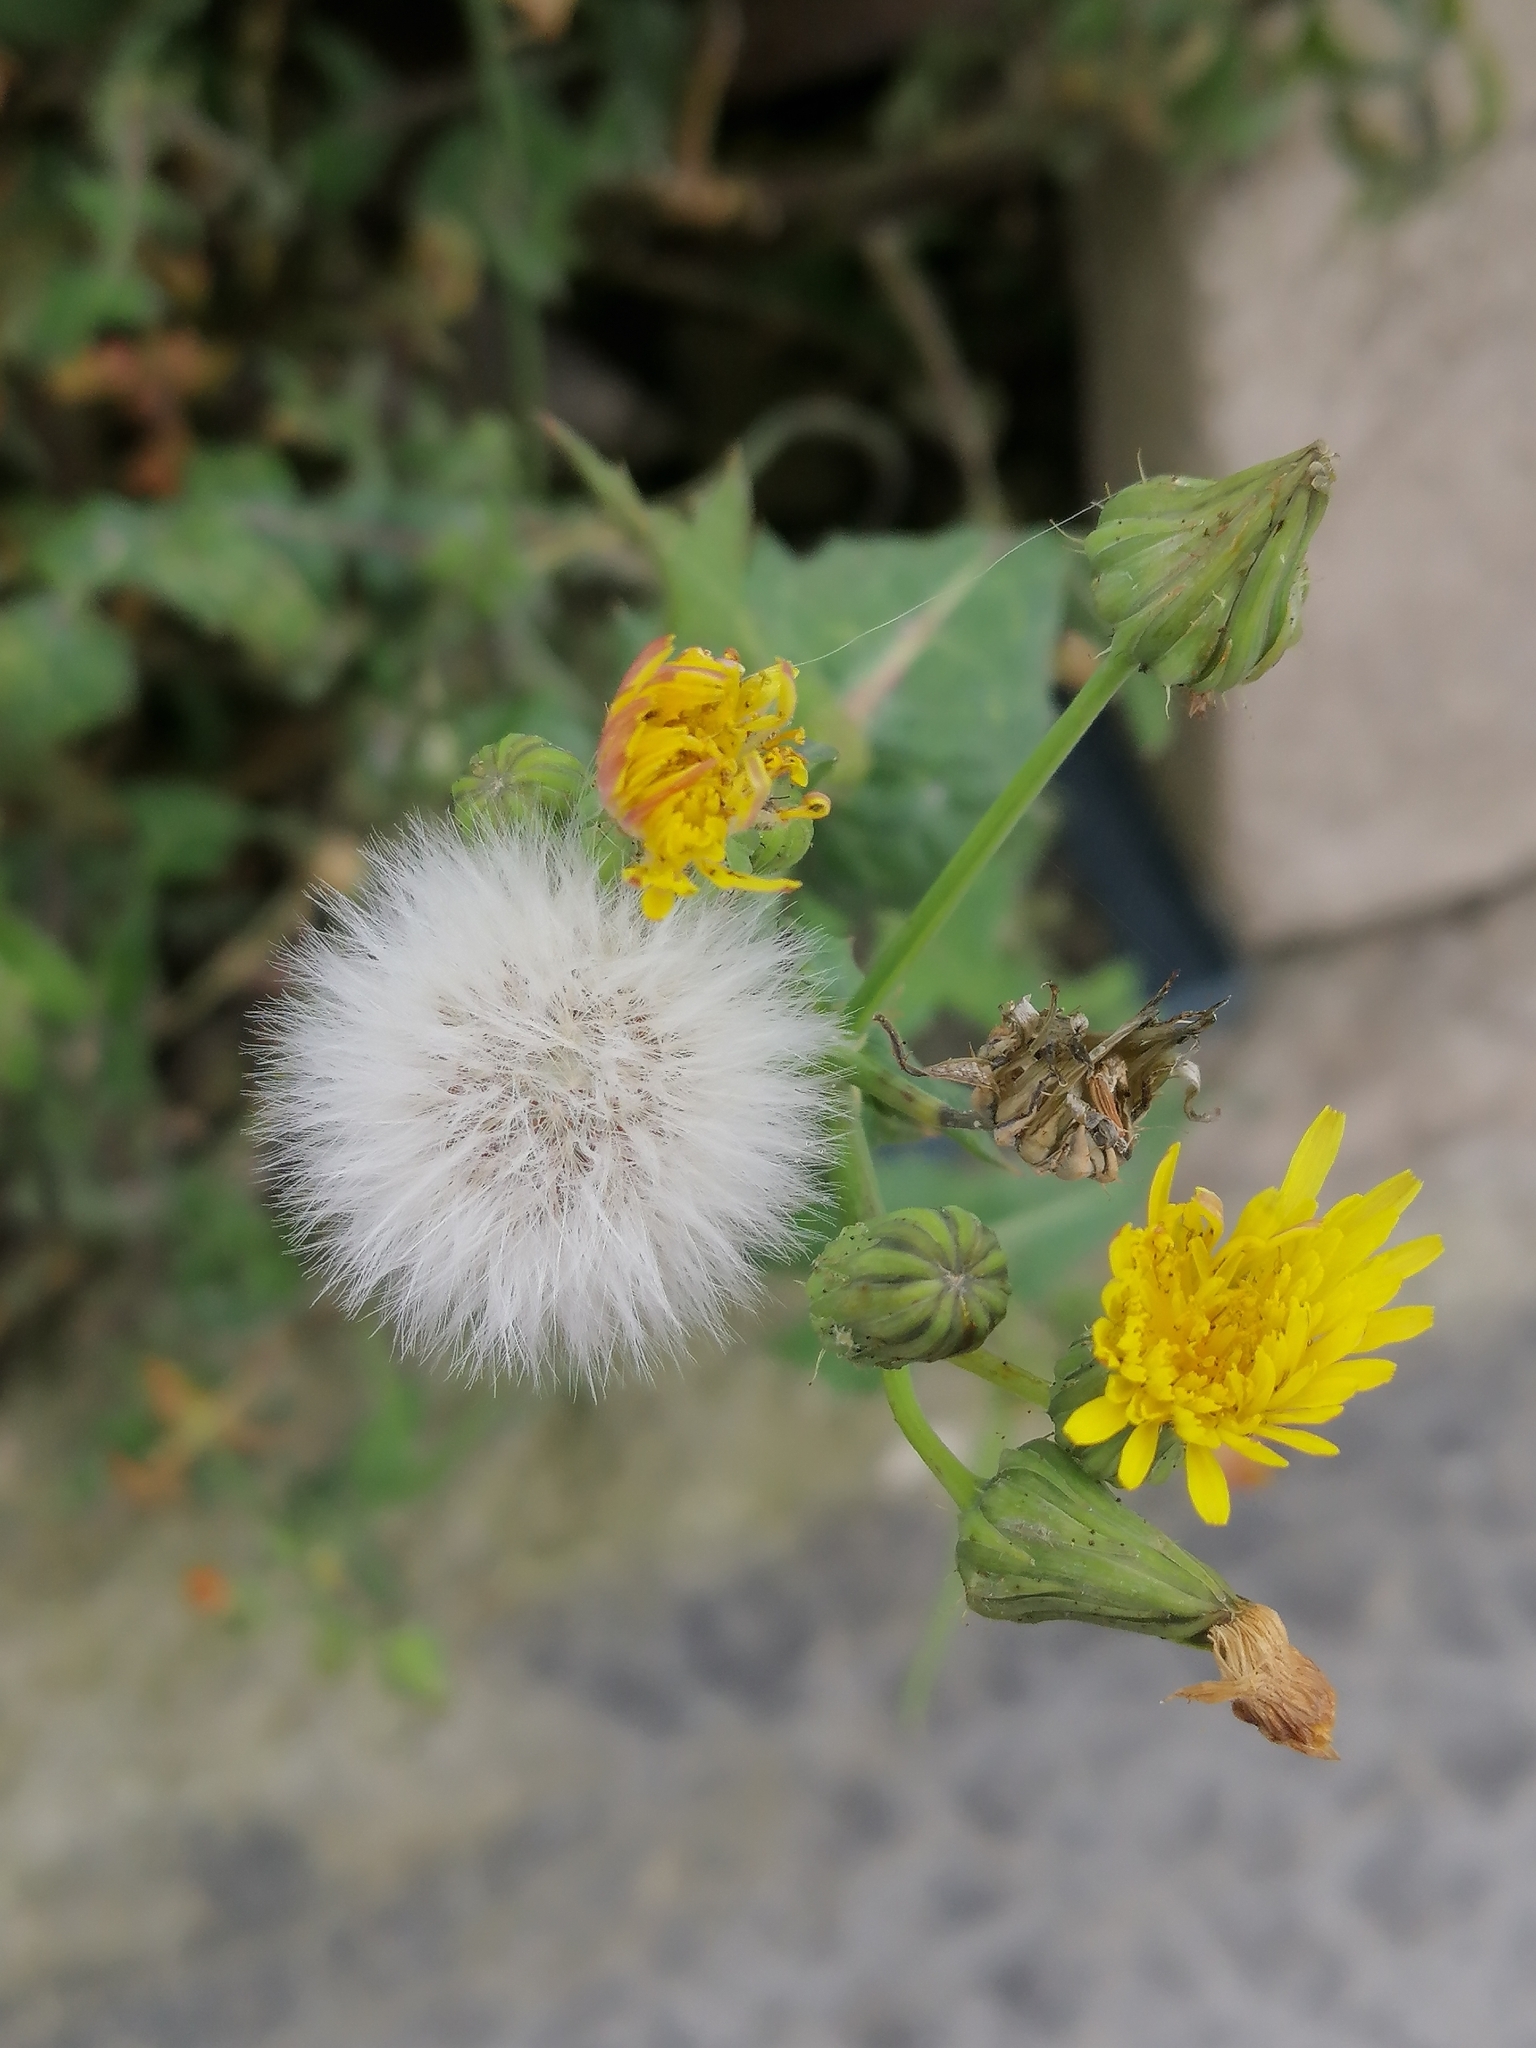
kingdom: Plantae
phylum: Tracheophyta
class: Magnoliopsida
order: Asterales
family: Asteraceae
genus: Sonchus
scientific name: Sonchus oleraceus
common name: Common sowthistle
